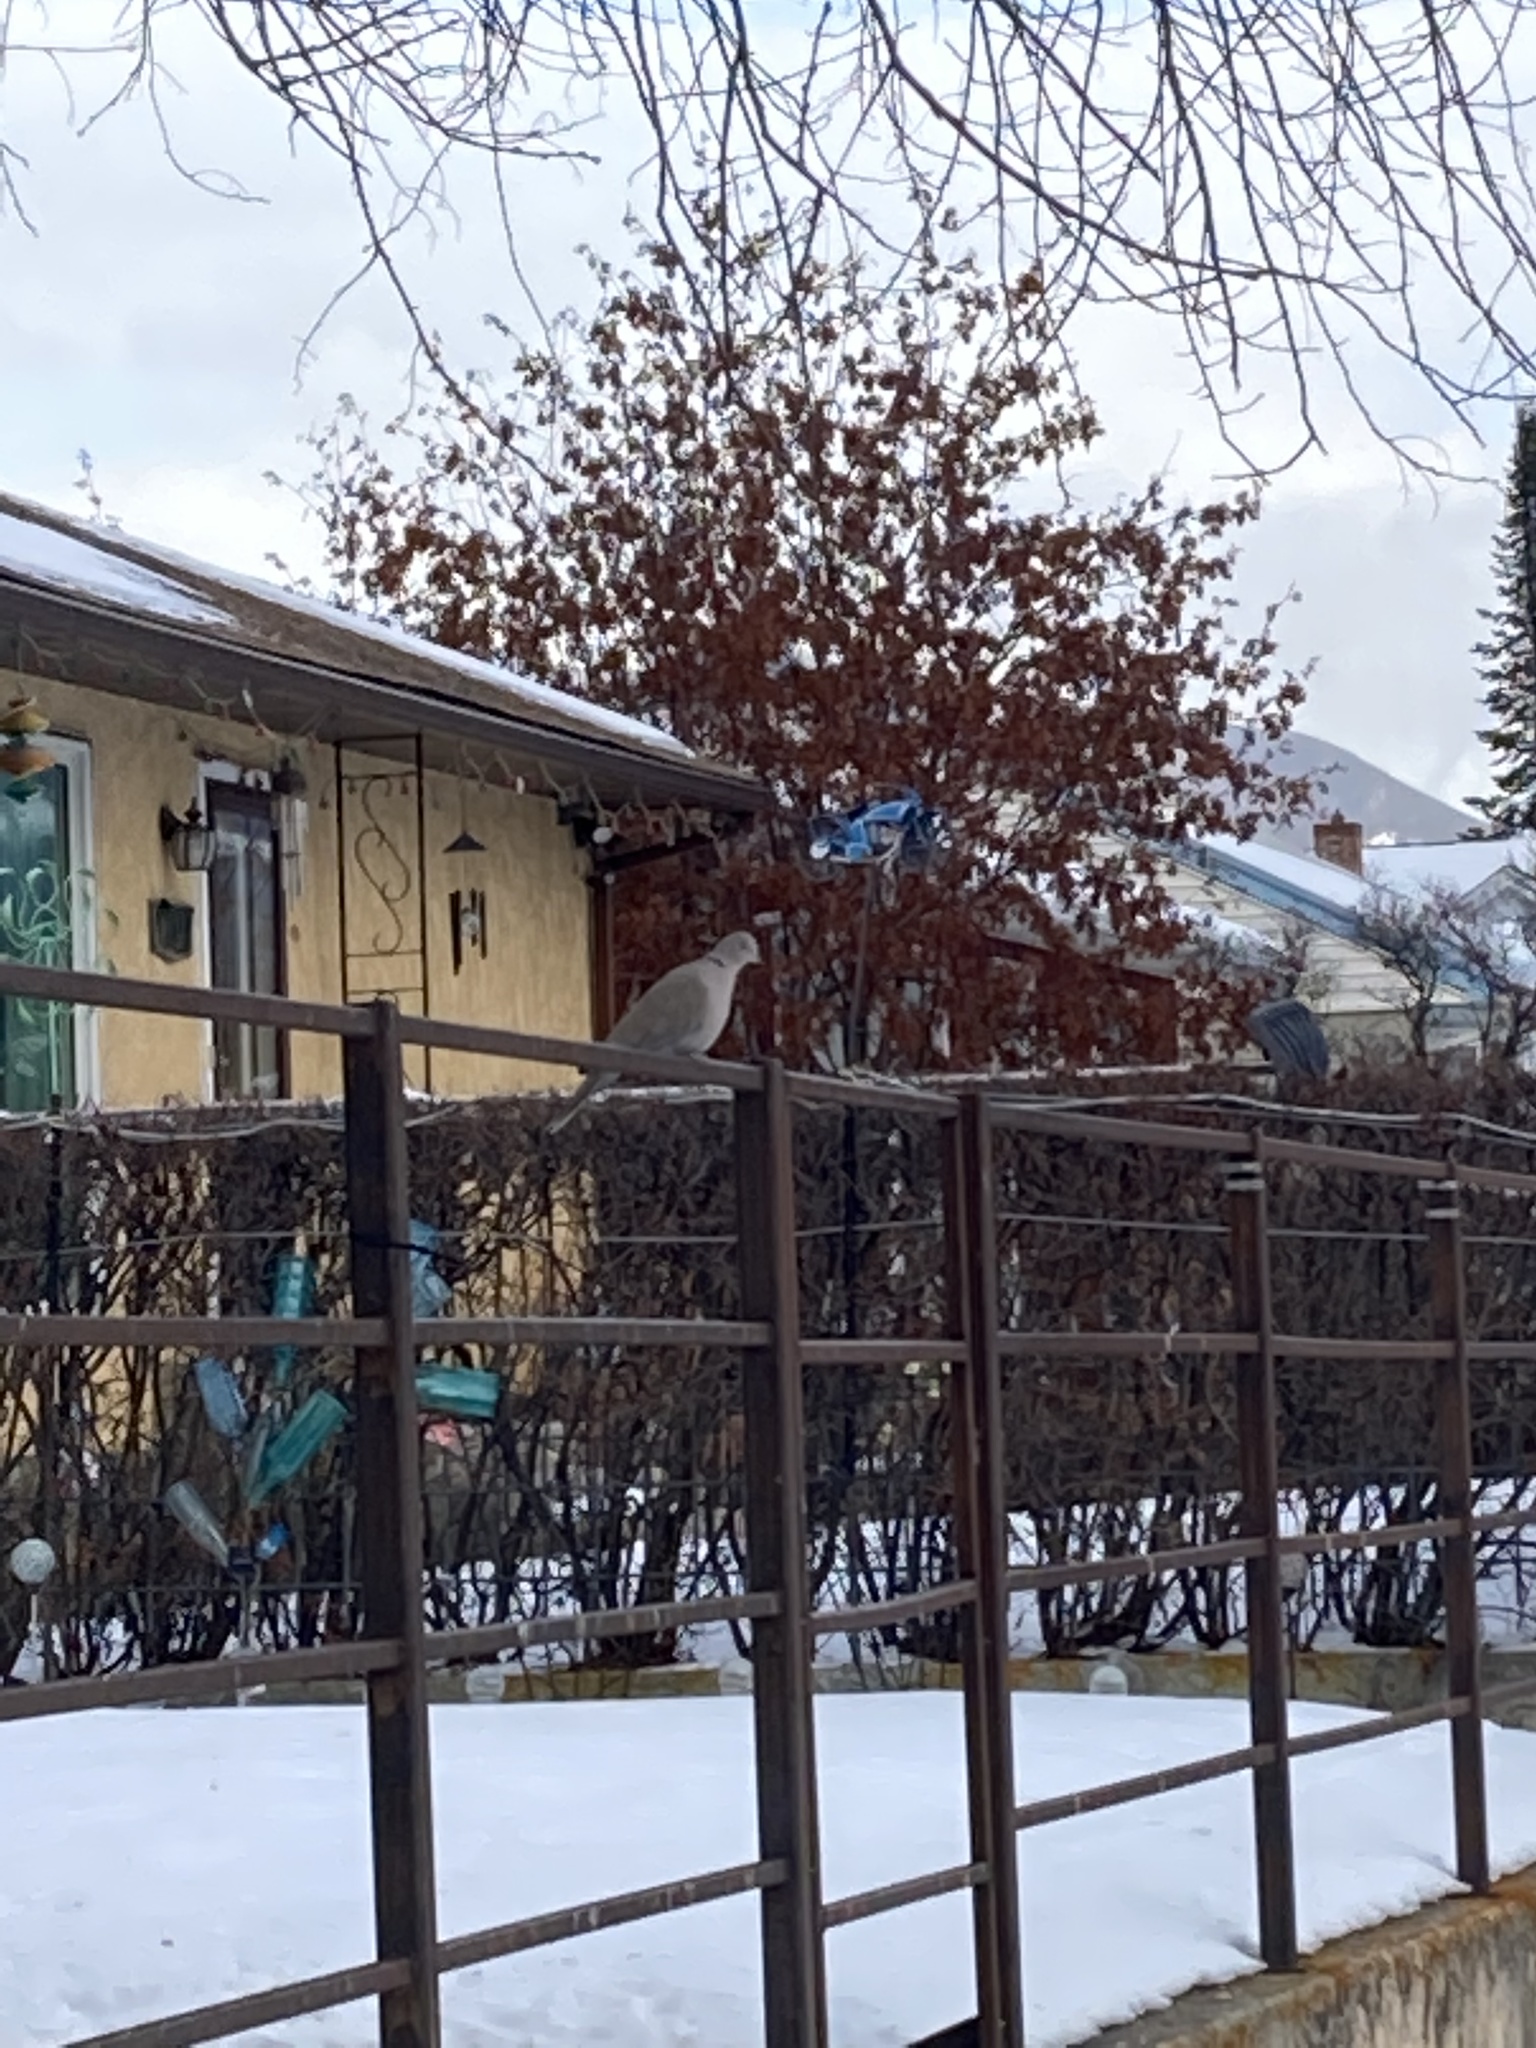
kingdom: Animalia
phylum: Chordata
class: Aves
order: Columbiformes
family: Columbidae
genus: Streptopelia
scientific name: Streptopelia decaocto
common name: Eurasian collared dove
